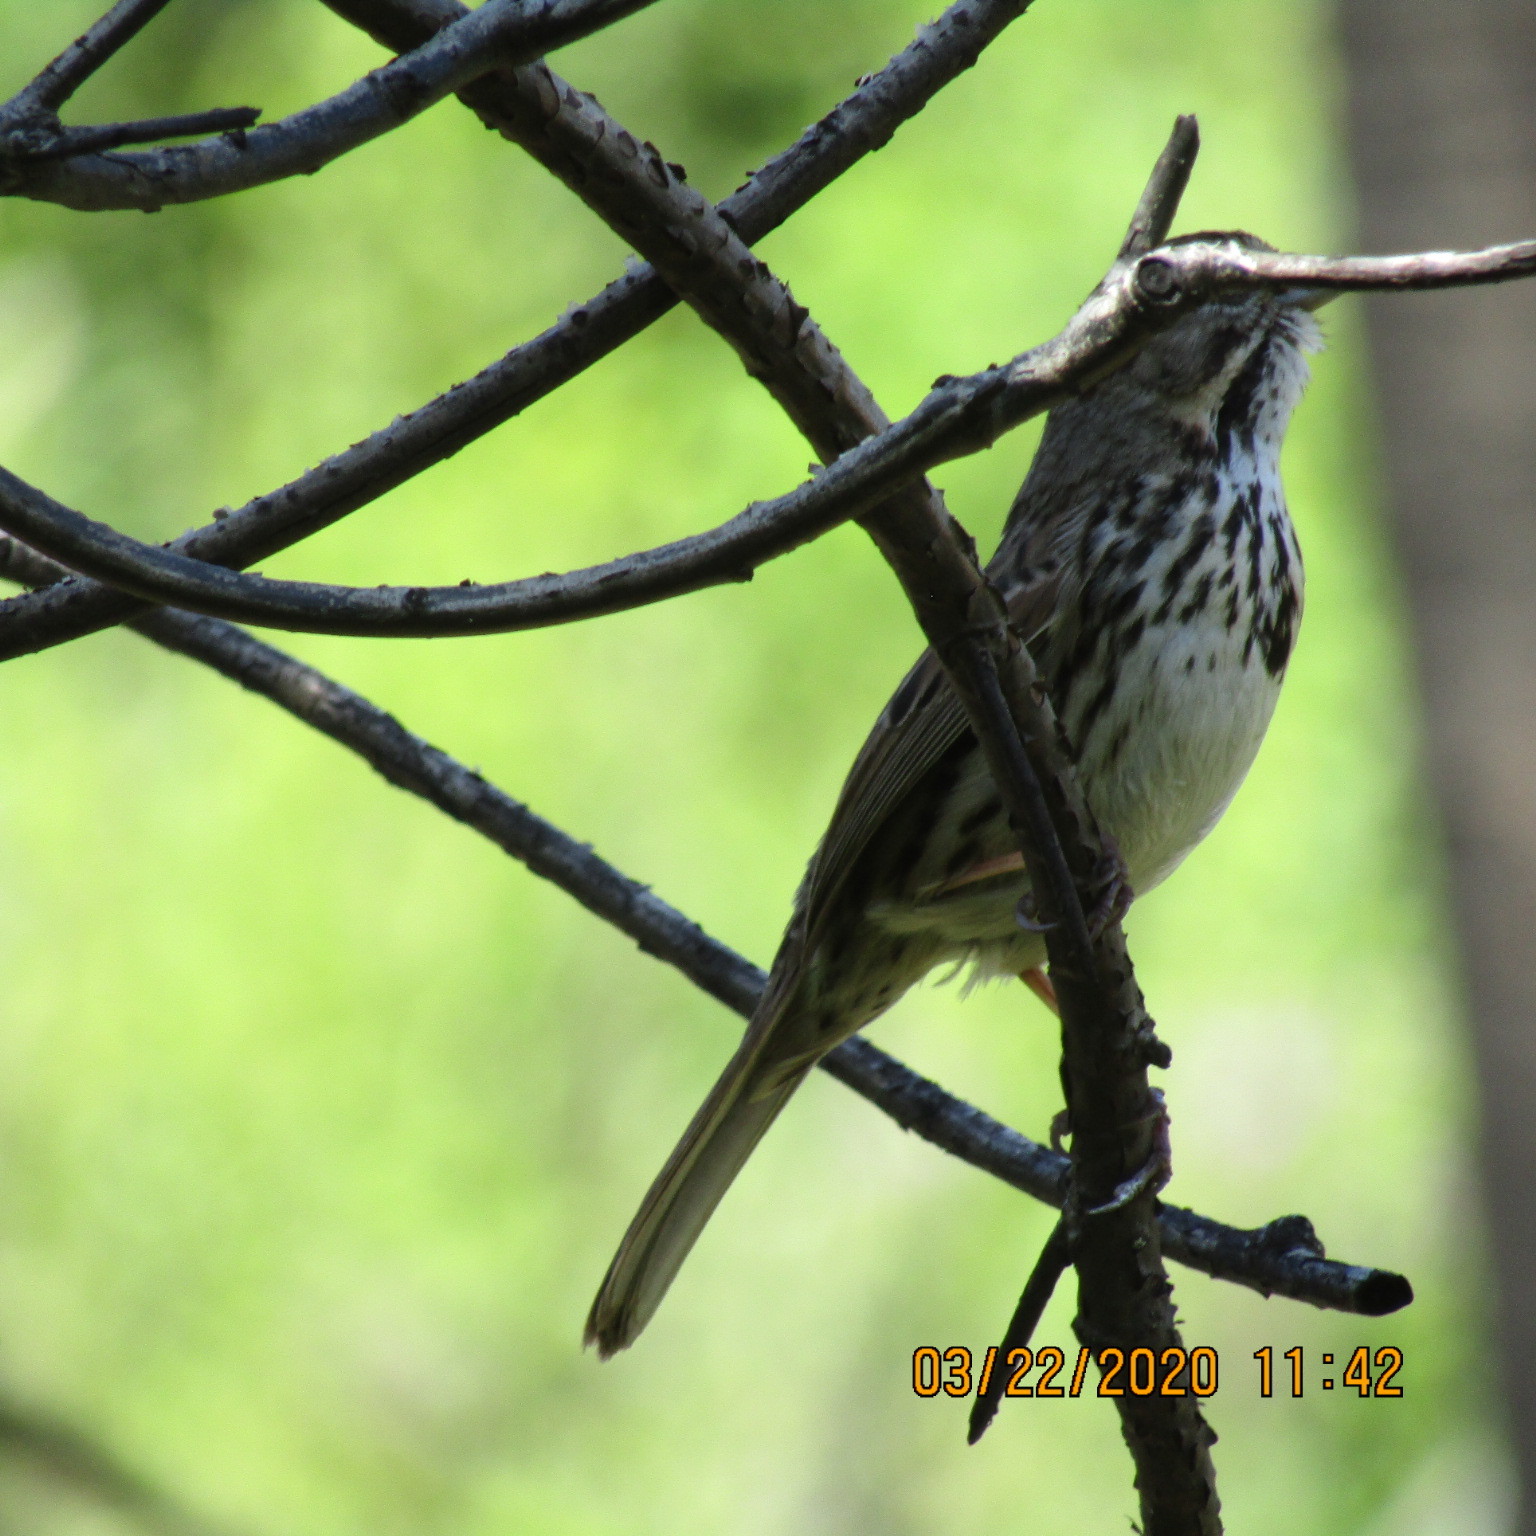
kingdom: Animalia
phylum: Chordata
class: Aves
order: Passeriformes
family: Passerellidae
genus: Melospiza
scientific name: Melospiza melodia
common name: Song sparrow
